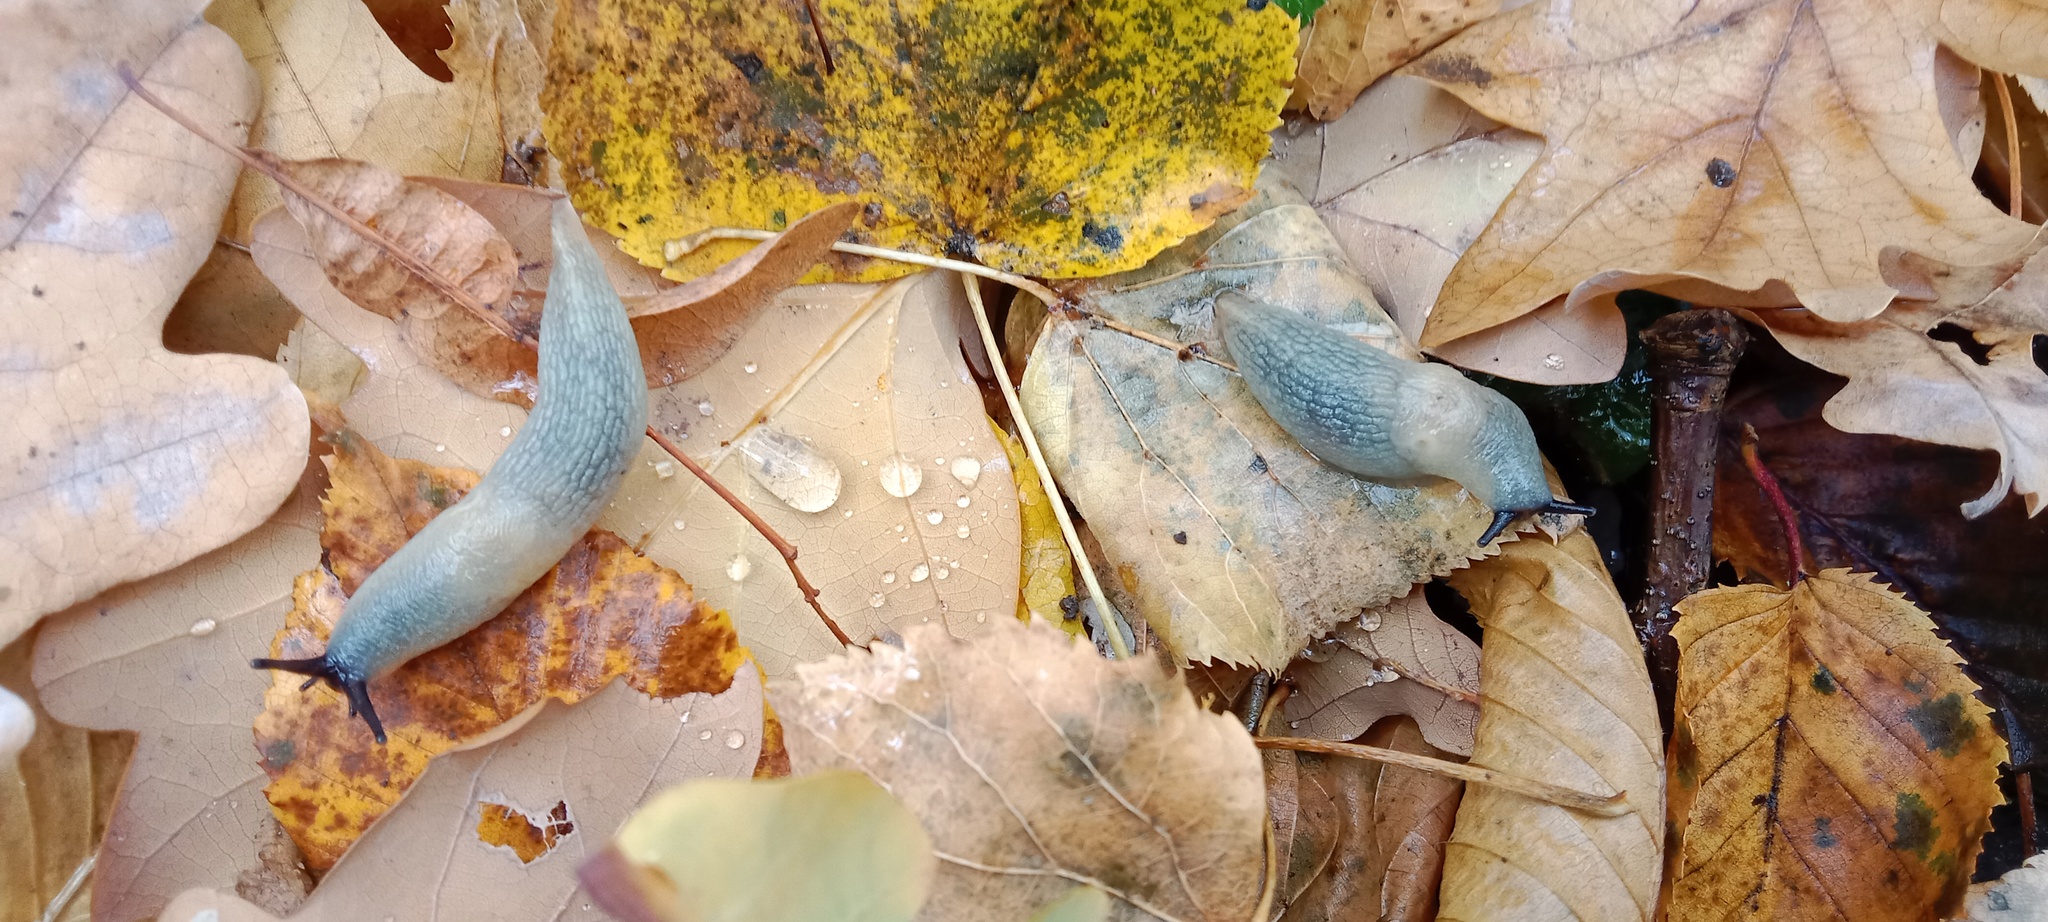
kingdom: Animalia
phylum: Mollusca
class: Gastropoda
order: Stylommatophora
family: Agriolimacidae
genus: Krynickillus
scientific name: Krynickillus melanocephalus
